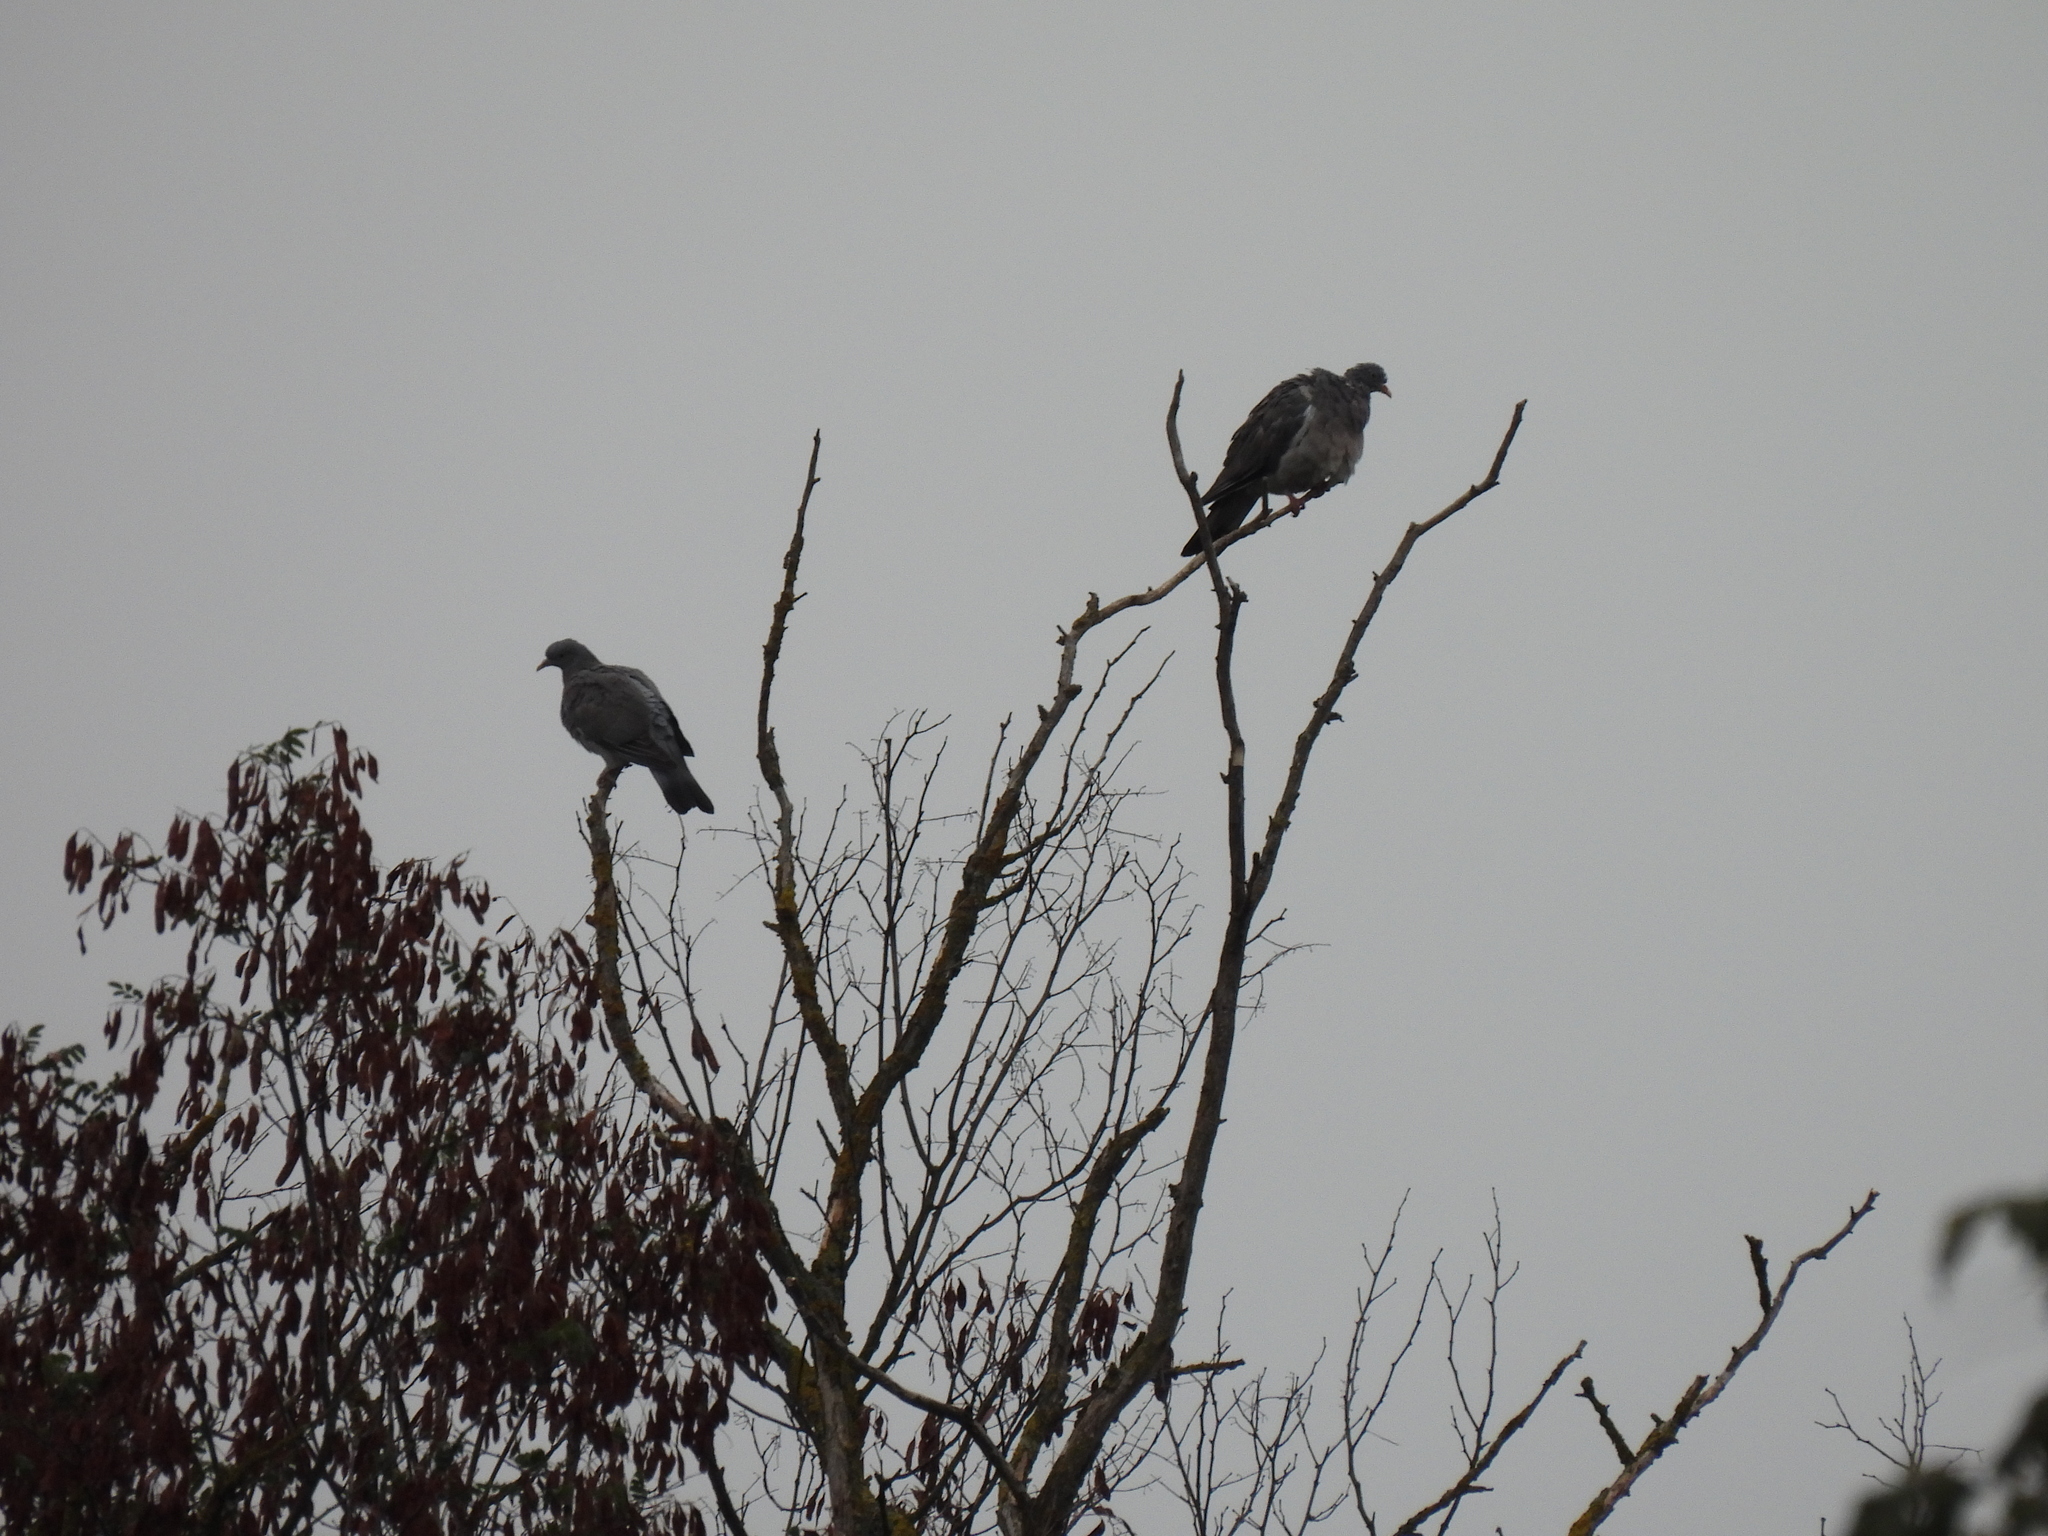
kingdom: Animalia
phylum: Chordata
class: Aves
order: Columbiformes
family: Columbidae
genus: Columba
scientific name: Columba palumbus
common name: Common wood pigeon
